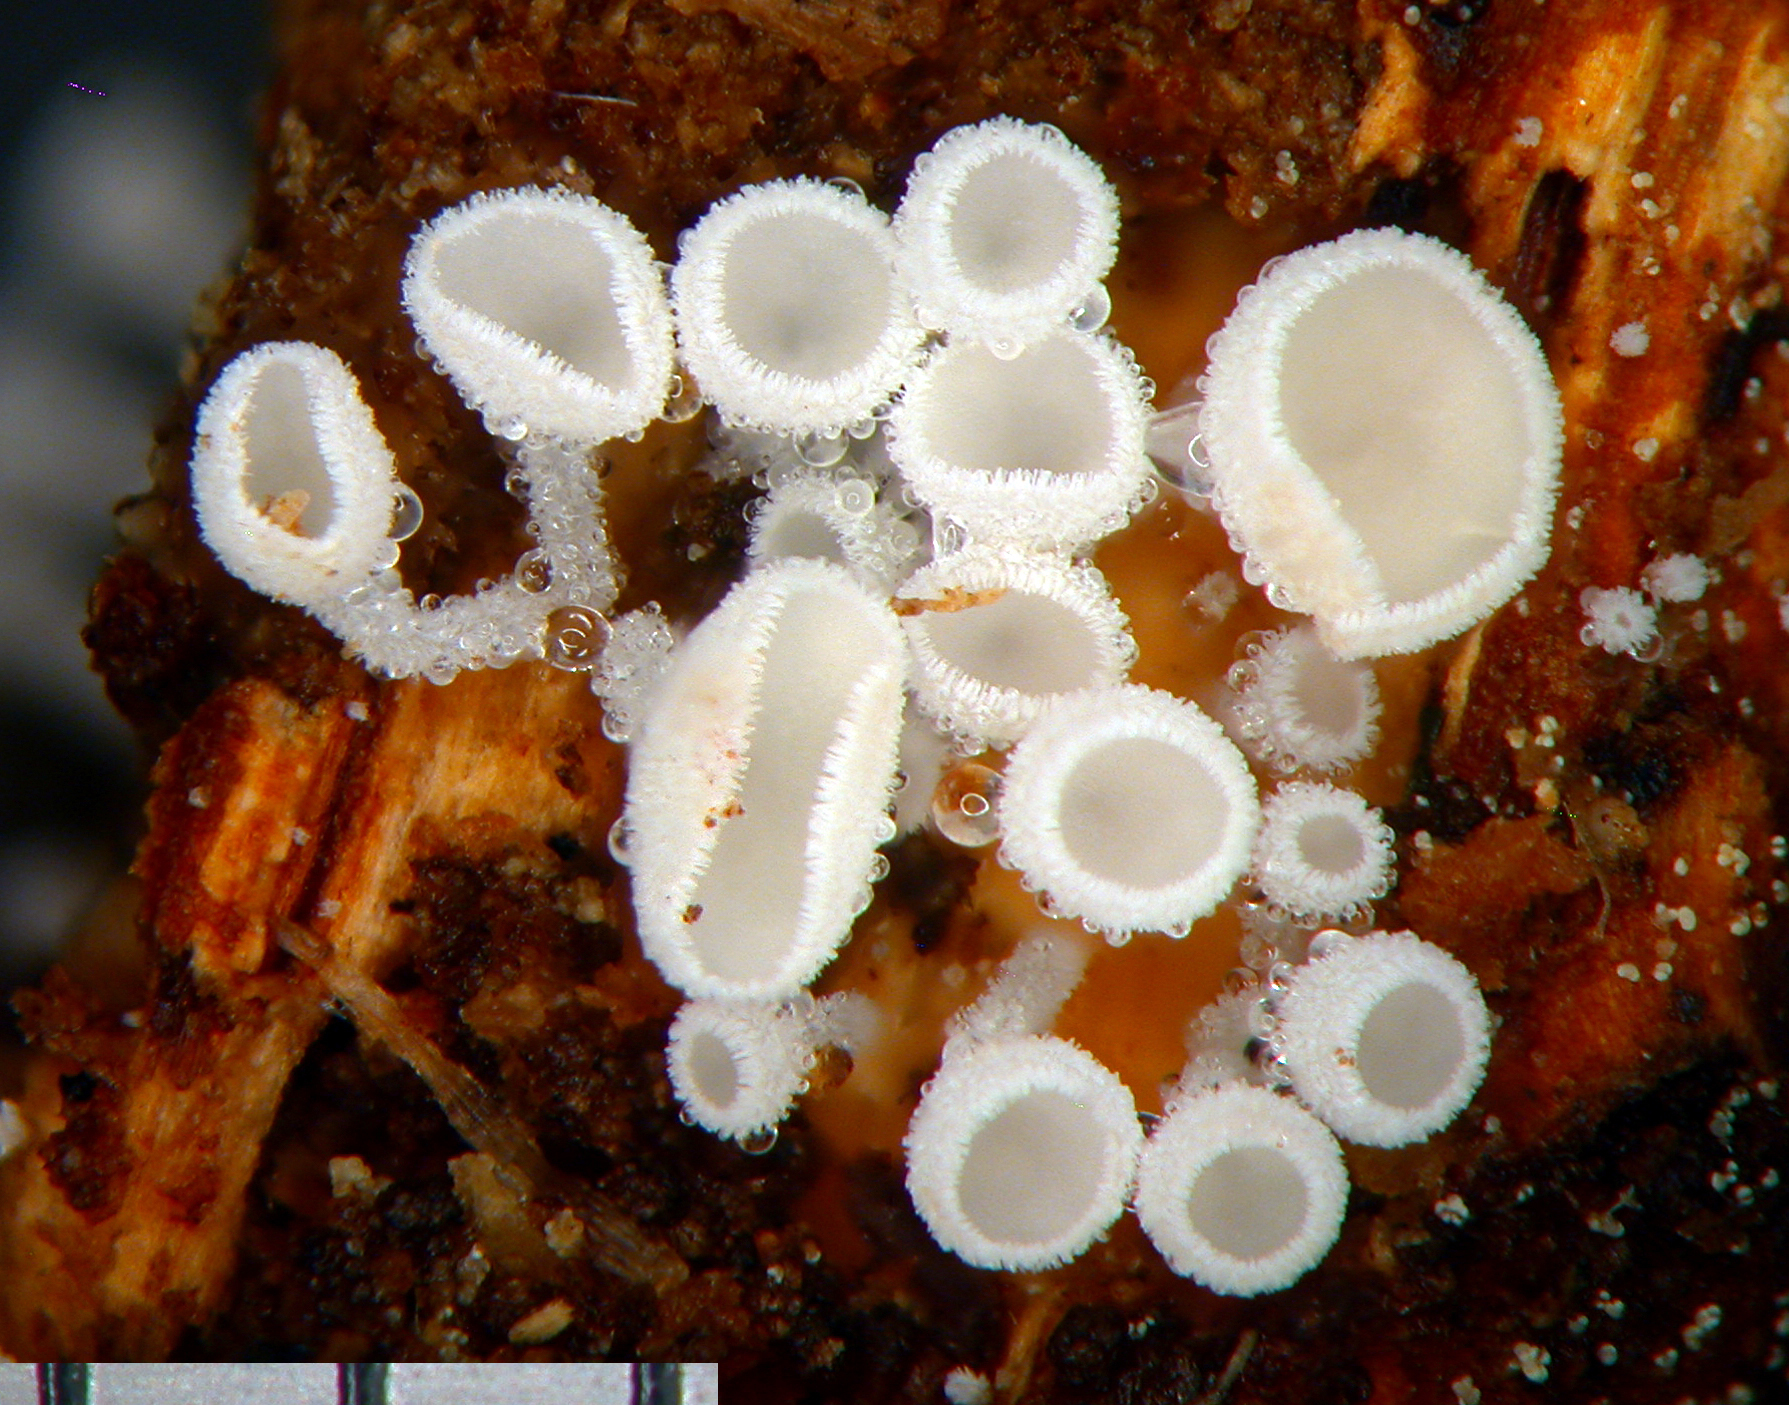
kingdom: Fungi
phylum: Ascomycota
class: Leotiomycetes
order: Helotiales
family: Lachnaceae
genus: Lachnum
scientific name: Lachnum virgineum
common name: Snowy disco
